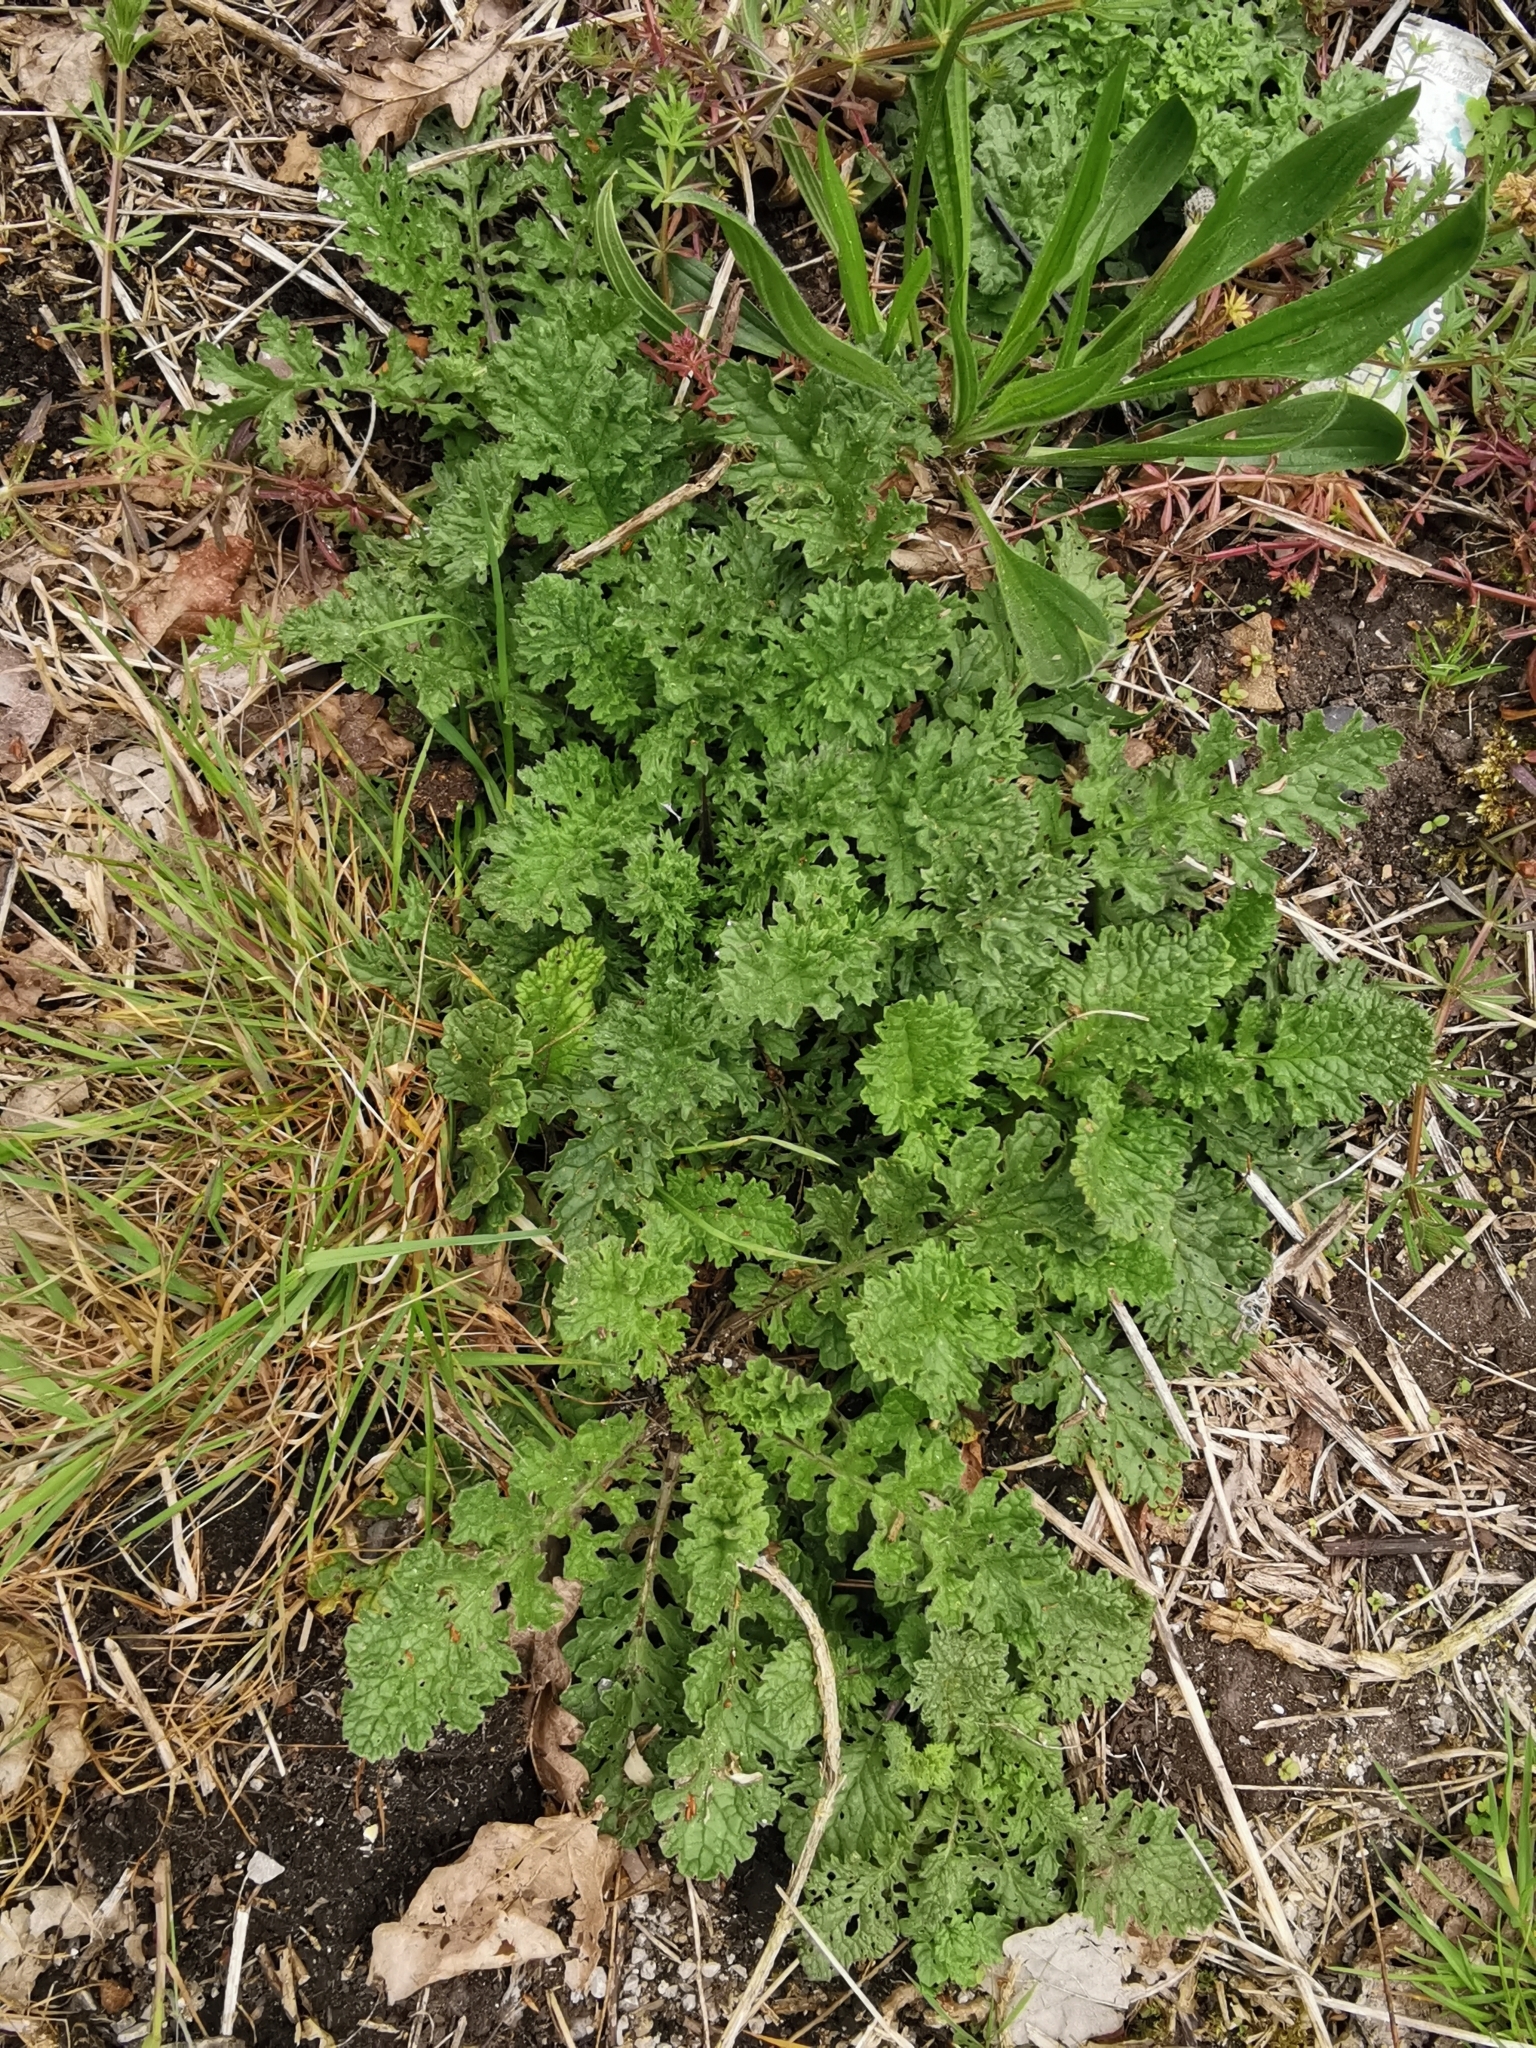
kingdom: Plantae
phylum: Tracheophyta
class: Magnoliopsida
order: Asterales
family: Asteraceae
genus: Jacobaea
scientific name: Jacobaea vulgaris
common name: Stinking willie
